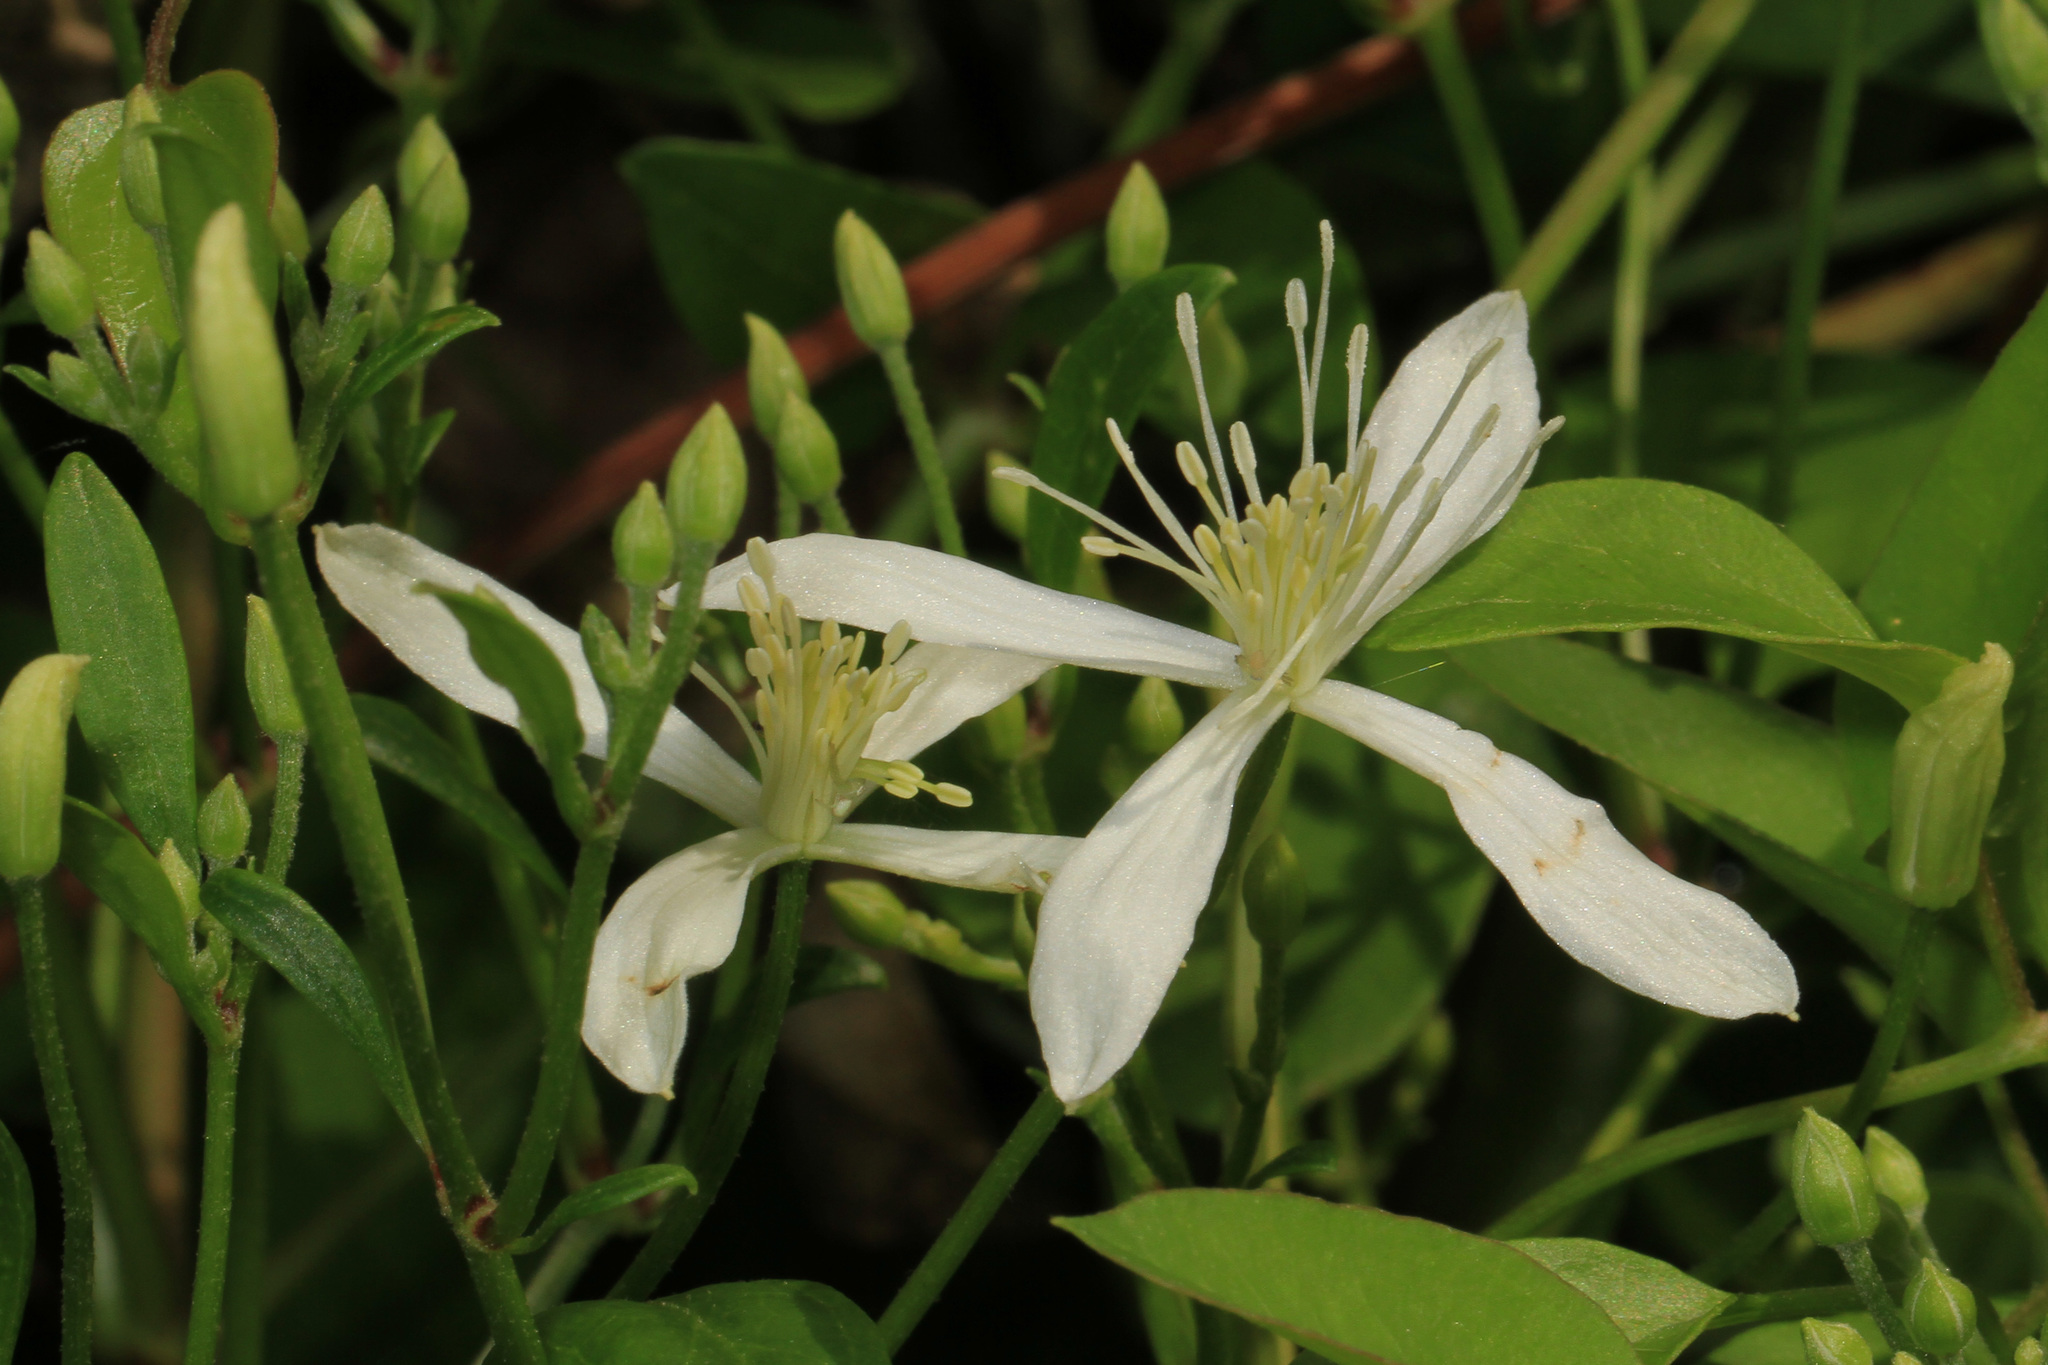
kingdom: Plantae
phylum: Tracheophyta
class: Magnoliopsida
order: Ranunculales
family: Ranunculaceae
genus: Clematis
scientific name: Clematis terniflora
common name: Sweet autumn clematis
